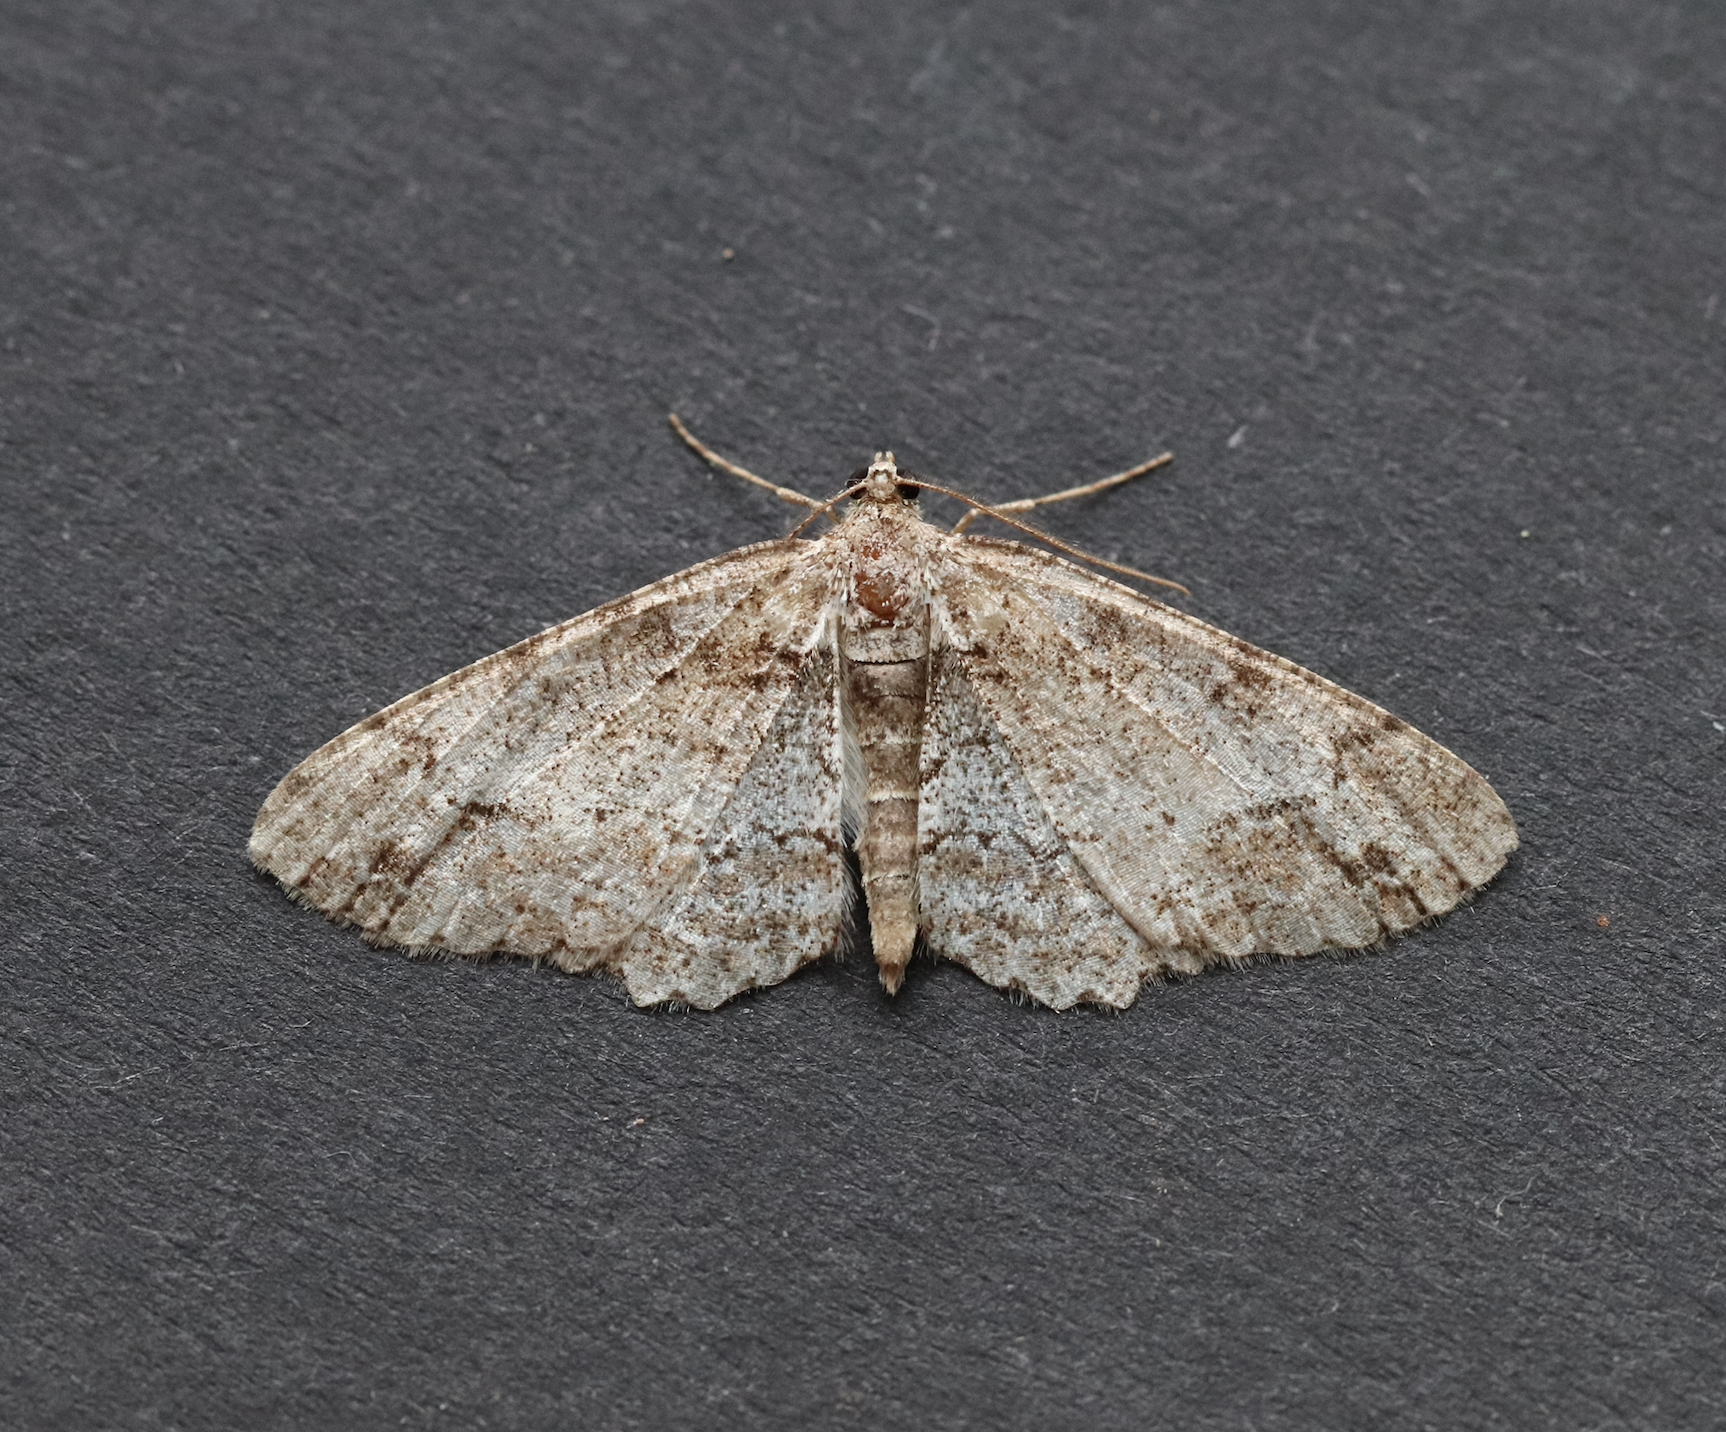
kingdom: Animalia
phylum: Arthropoda
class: Insecta
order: Lepidoptera
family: Geometridae
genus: Paradarisa
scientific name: Paradarisa consonaria
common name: Square spot
